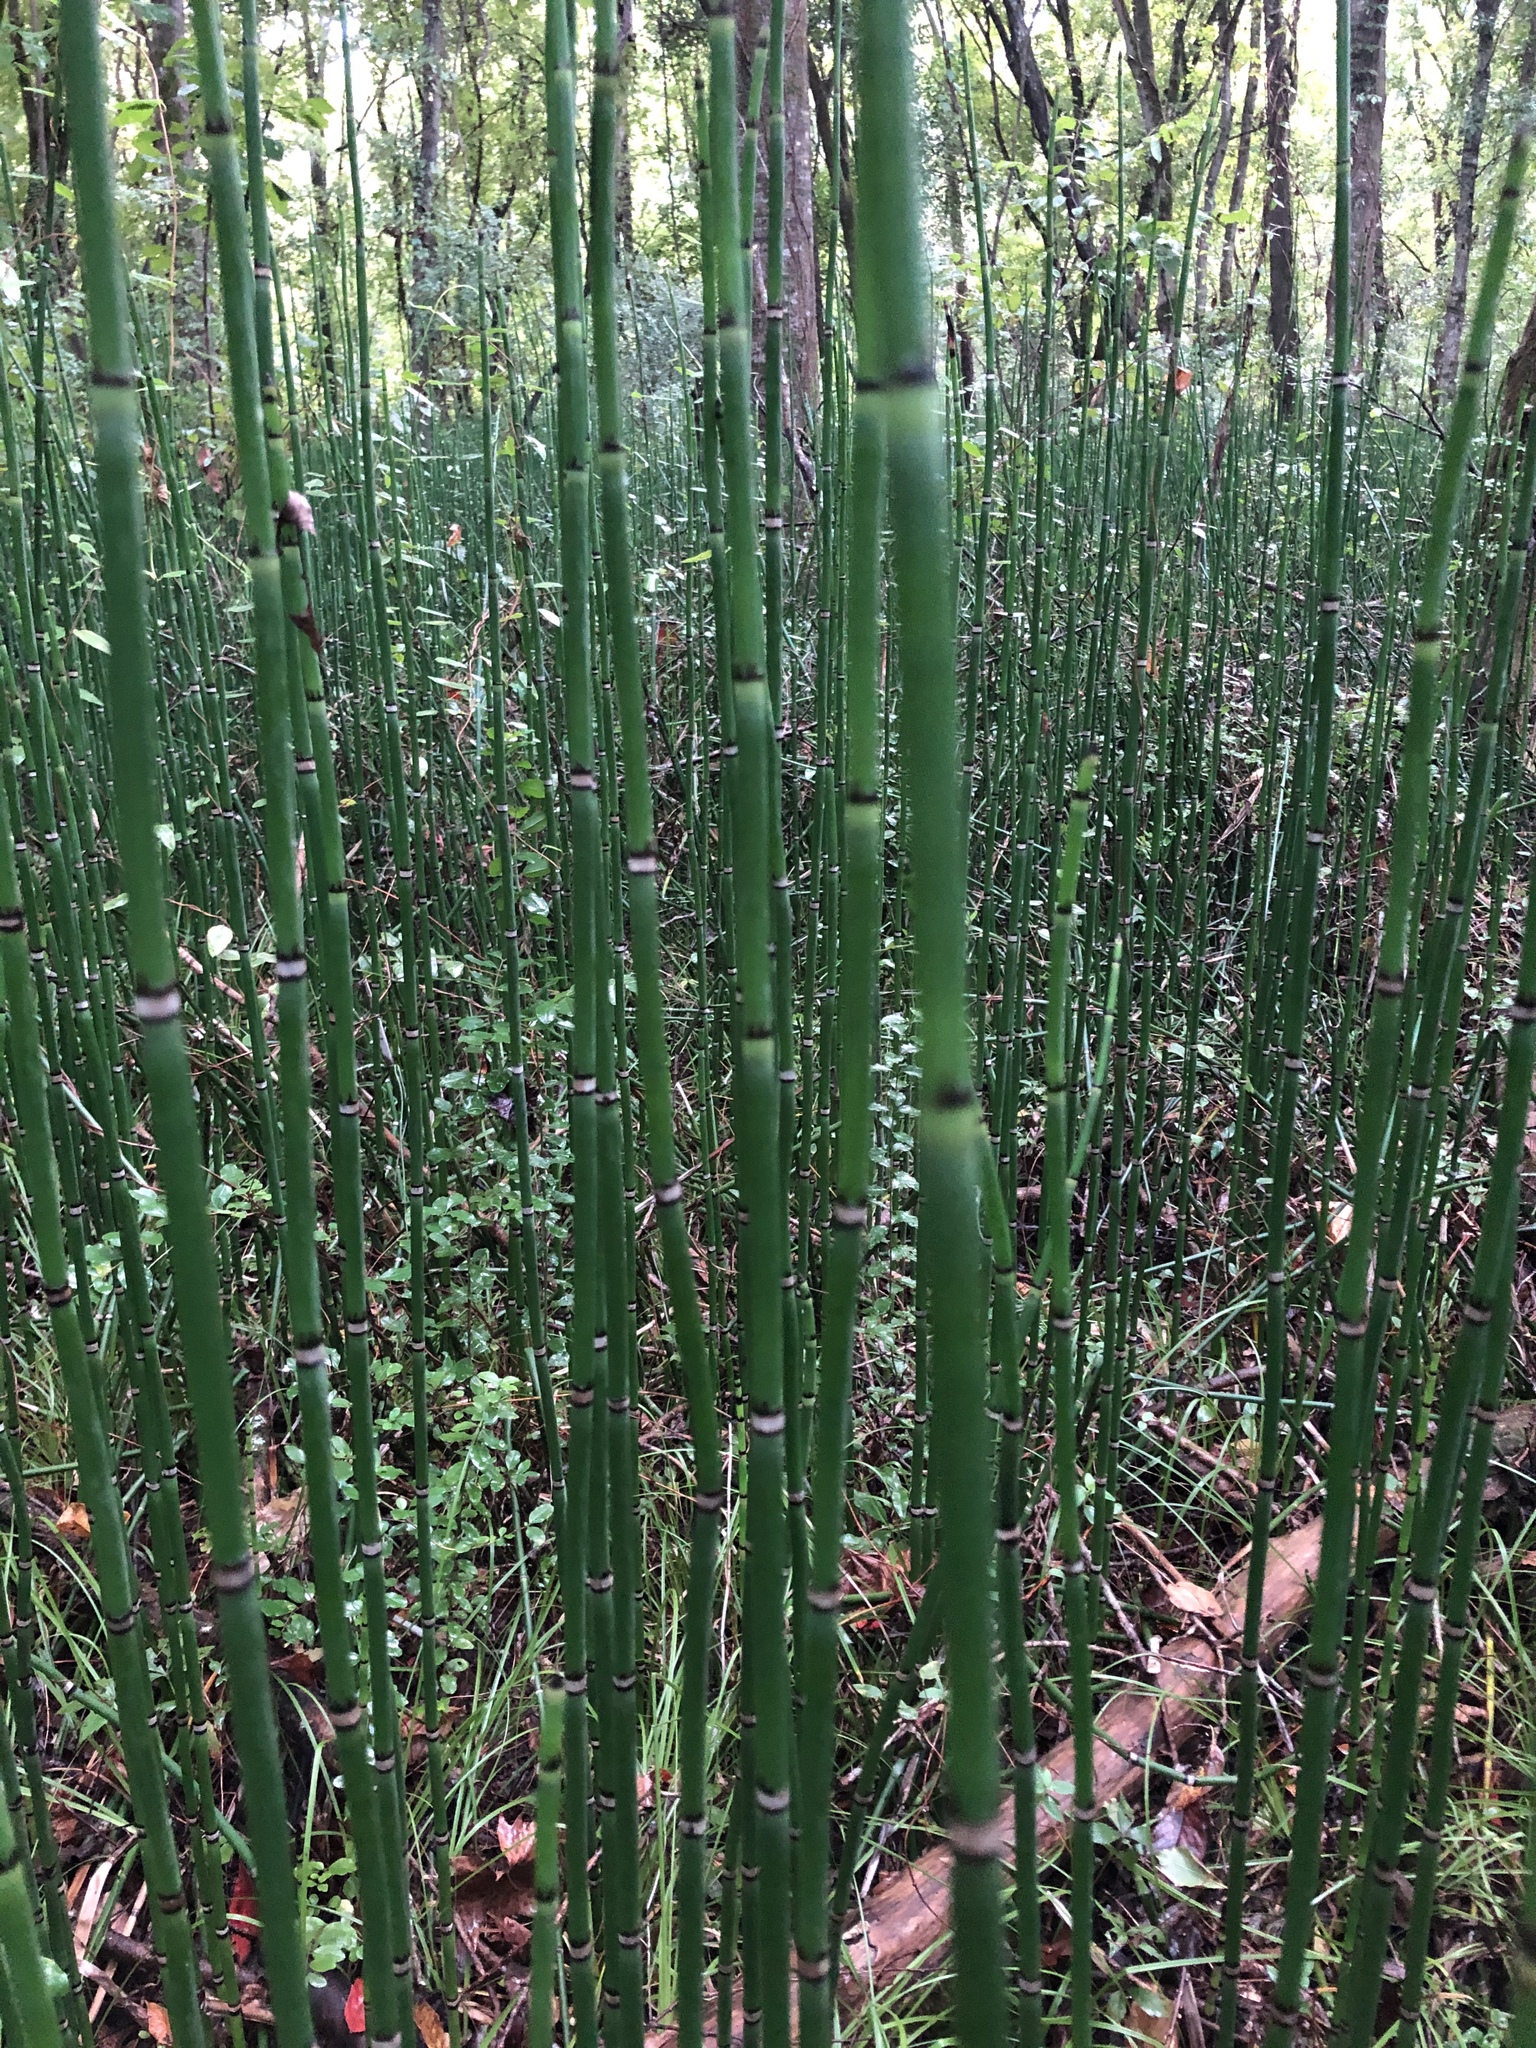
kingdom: Plantae
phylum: Tracheophyta
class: Polypodiopsida
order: Equisetales
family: Equisetaceae
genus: Equisetum
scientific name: Equisetum praealtum
